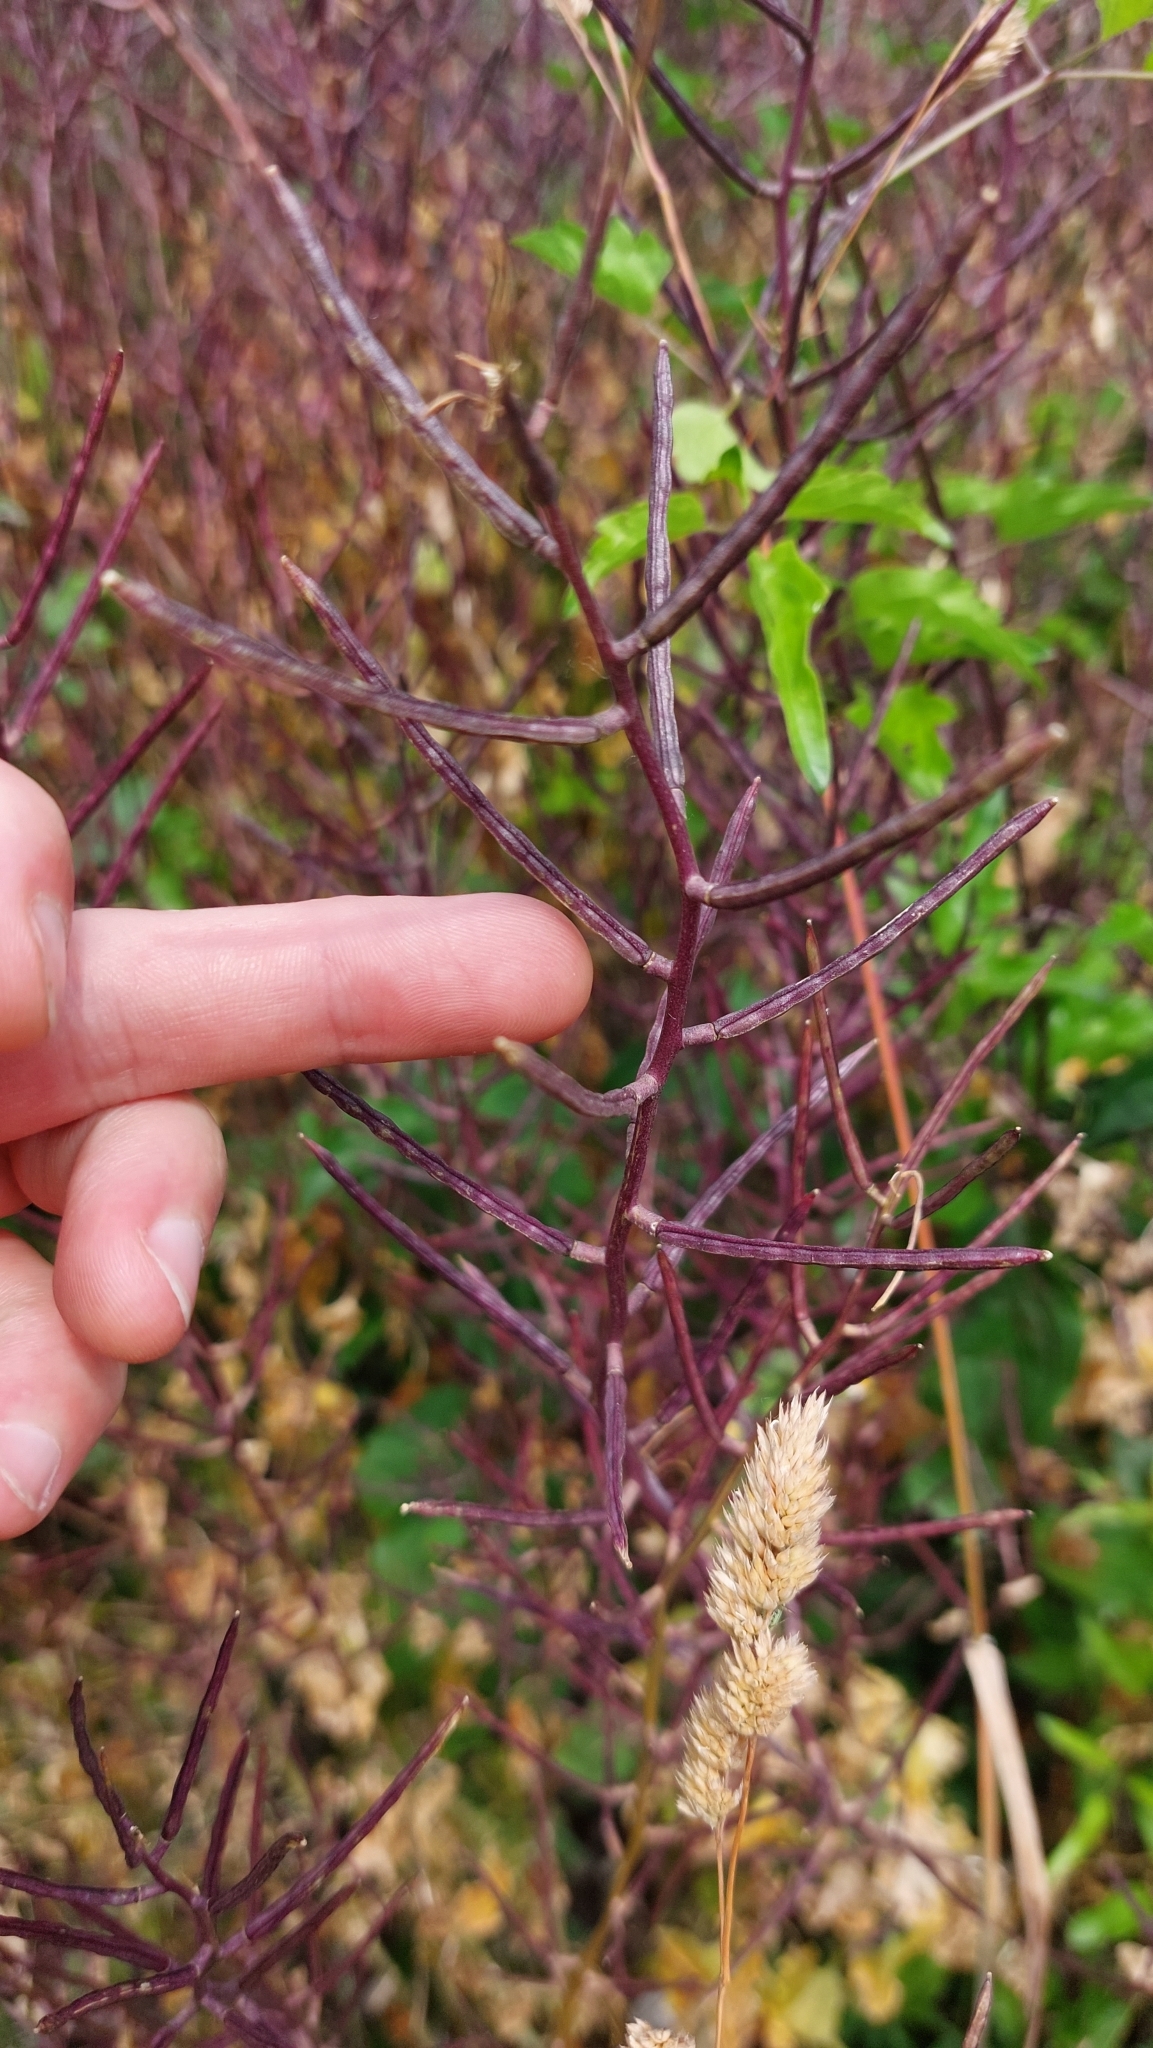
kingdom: Plantae
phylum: Tracheophyta
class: Magnoliopsida
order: Brassicales
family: Brassicaceae
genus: Alliaria
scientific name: Alliaria petiolata
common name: Garlic mustard
